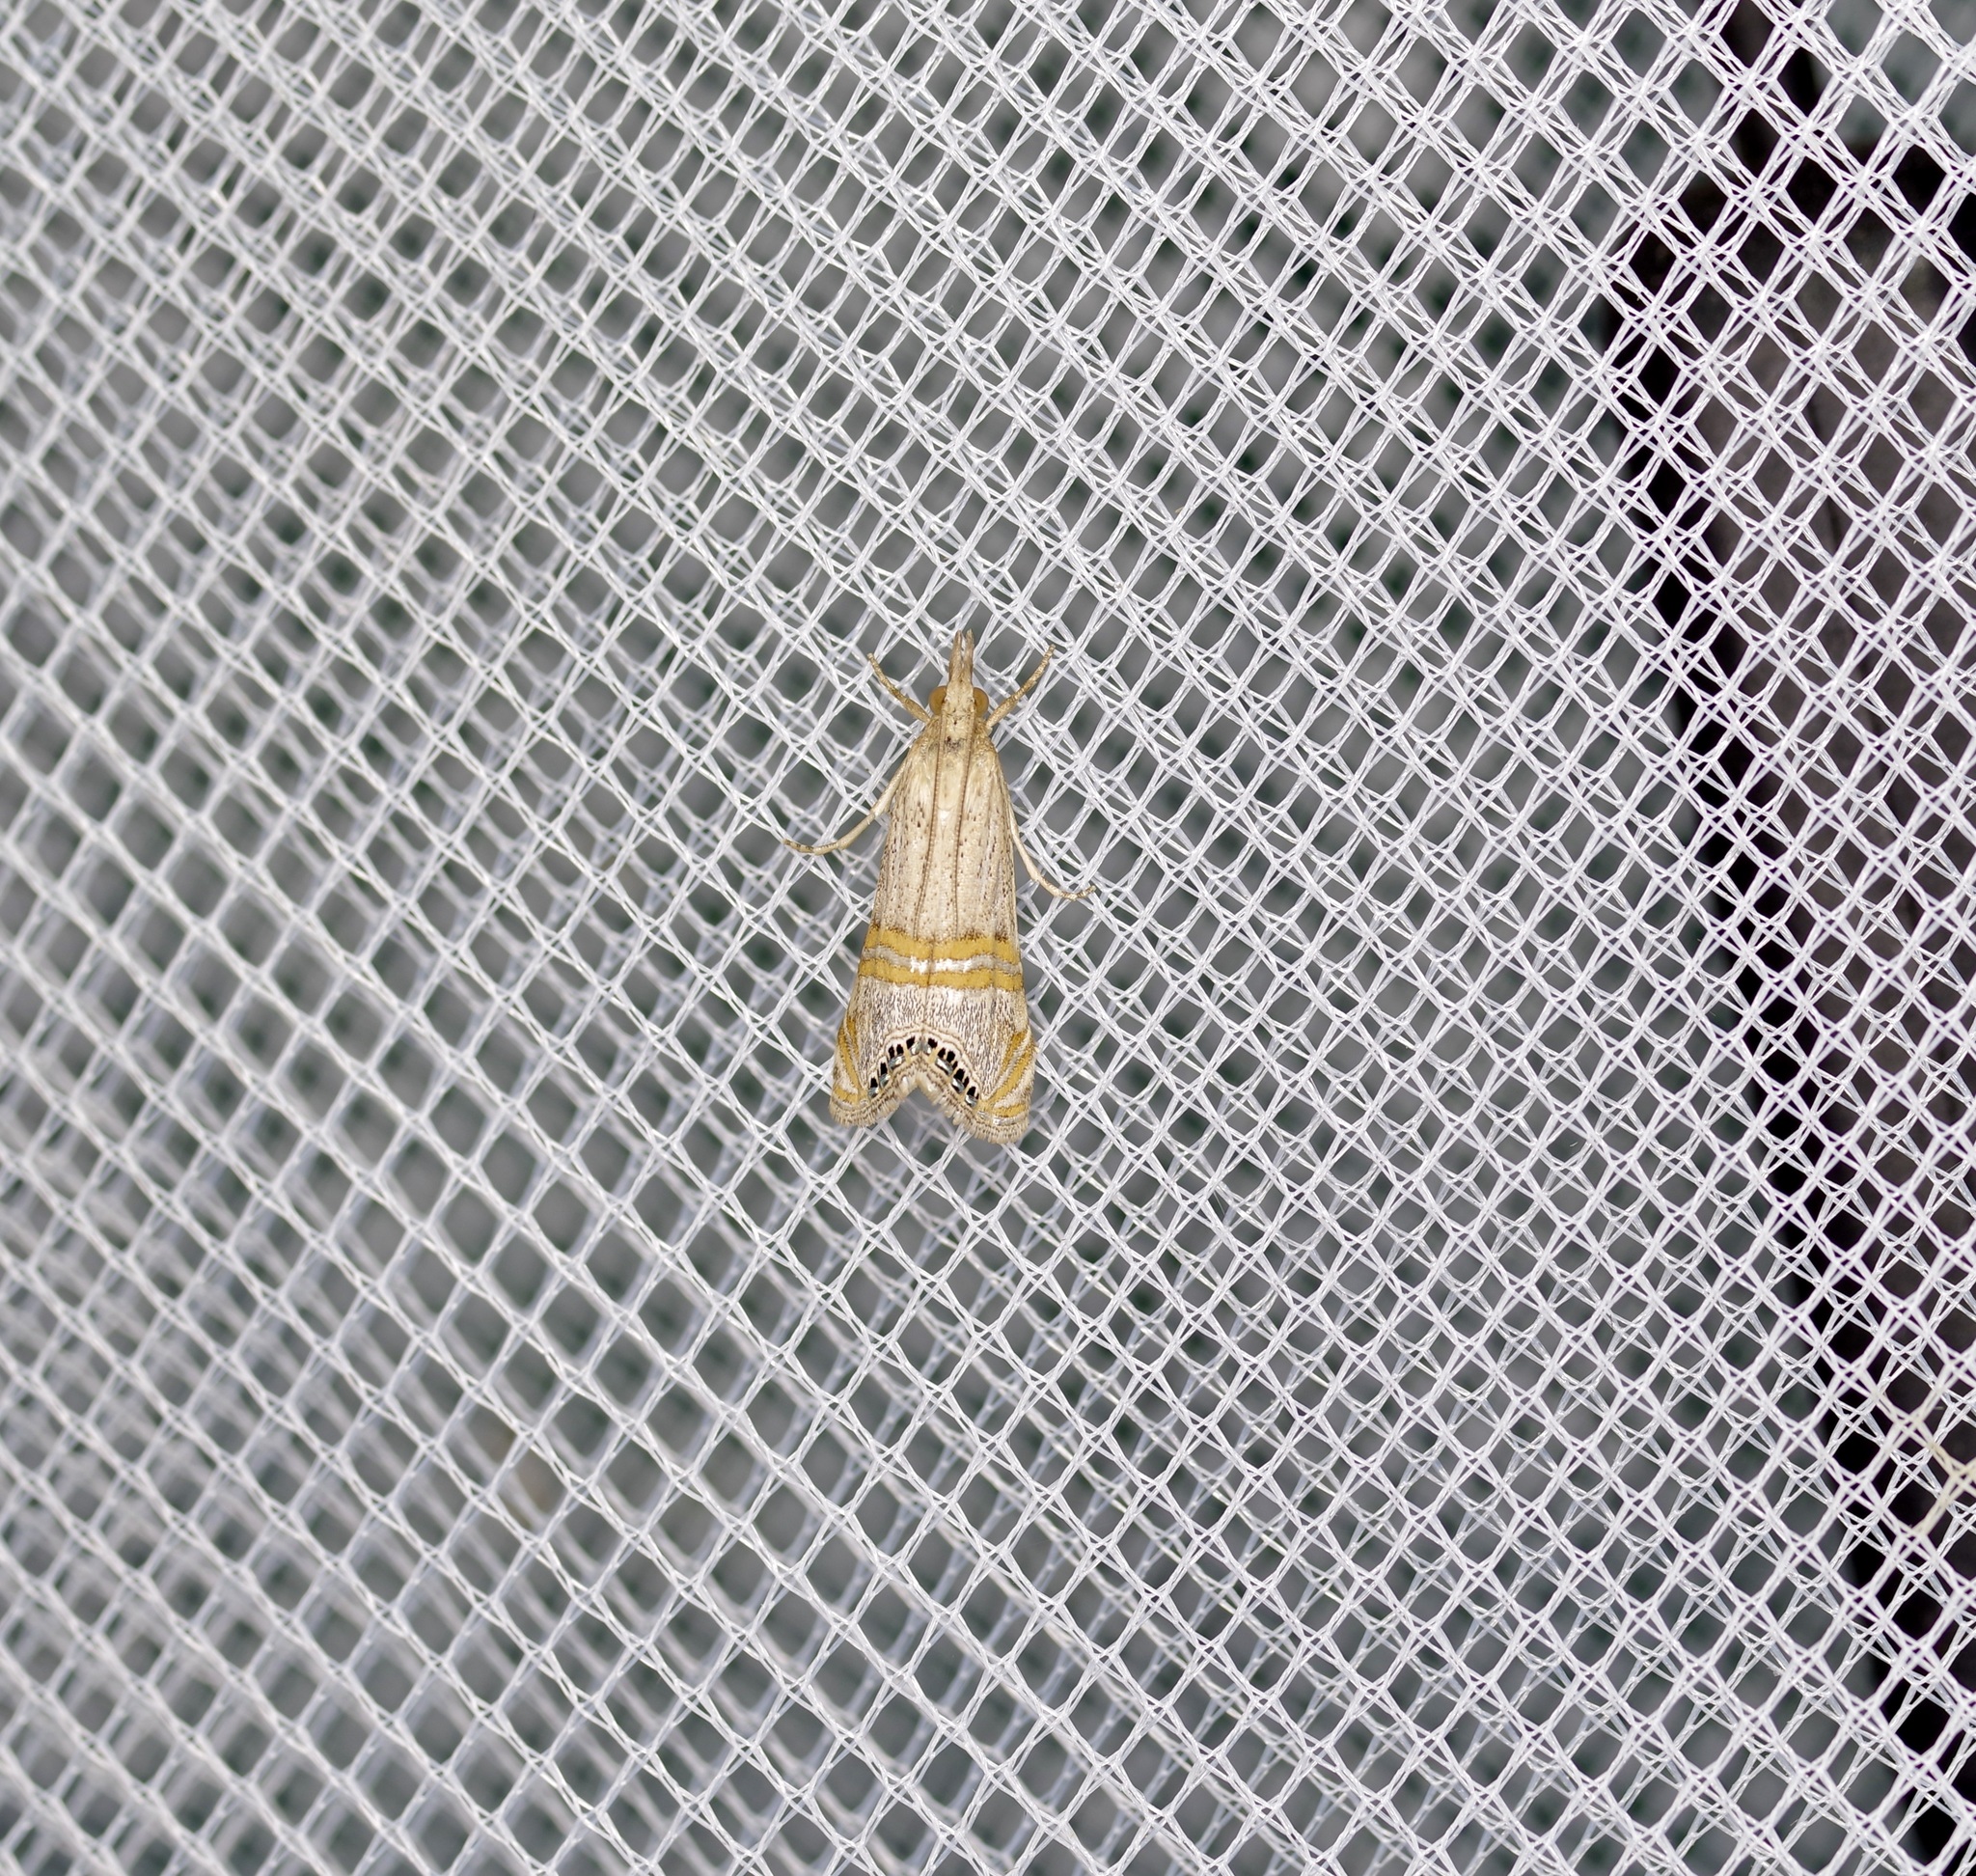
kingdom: Animalia
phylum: Arthropoda
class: Insecta
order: Lepidoptera
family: Crambidae
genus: Euchromius
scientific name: Euchromius ocellea
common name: Necklace veneer moth
